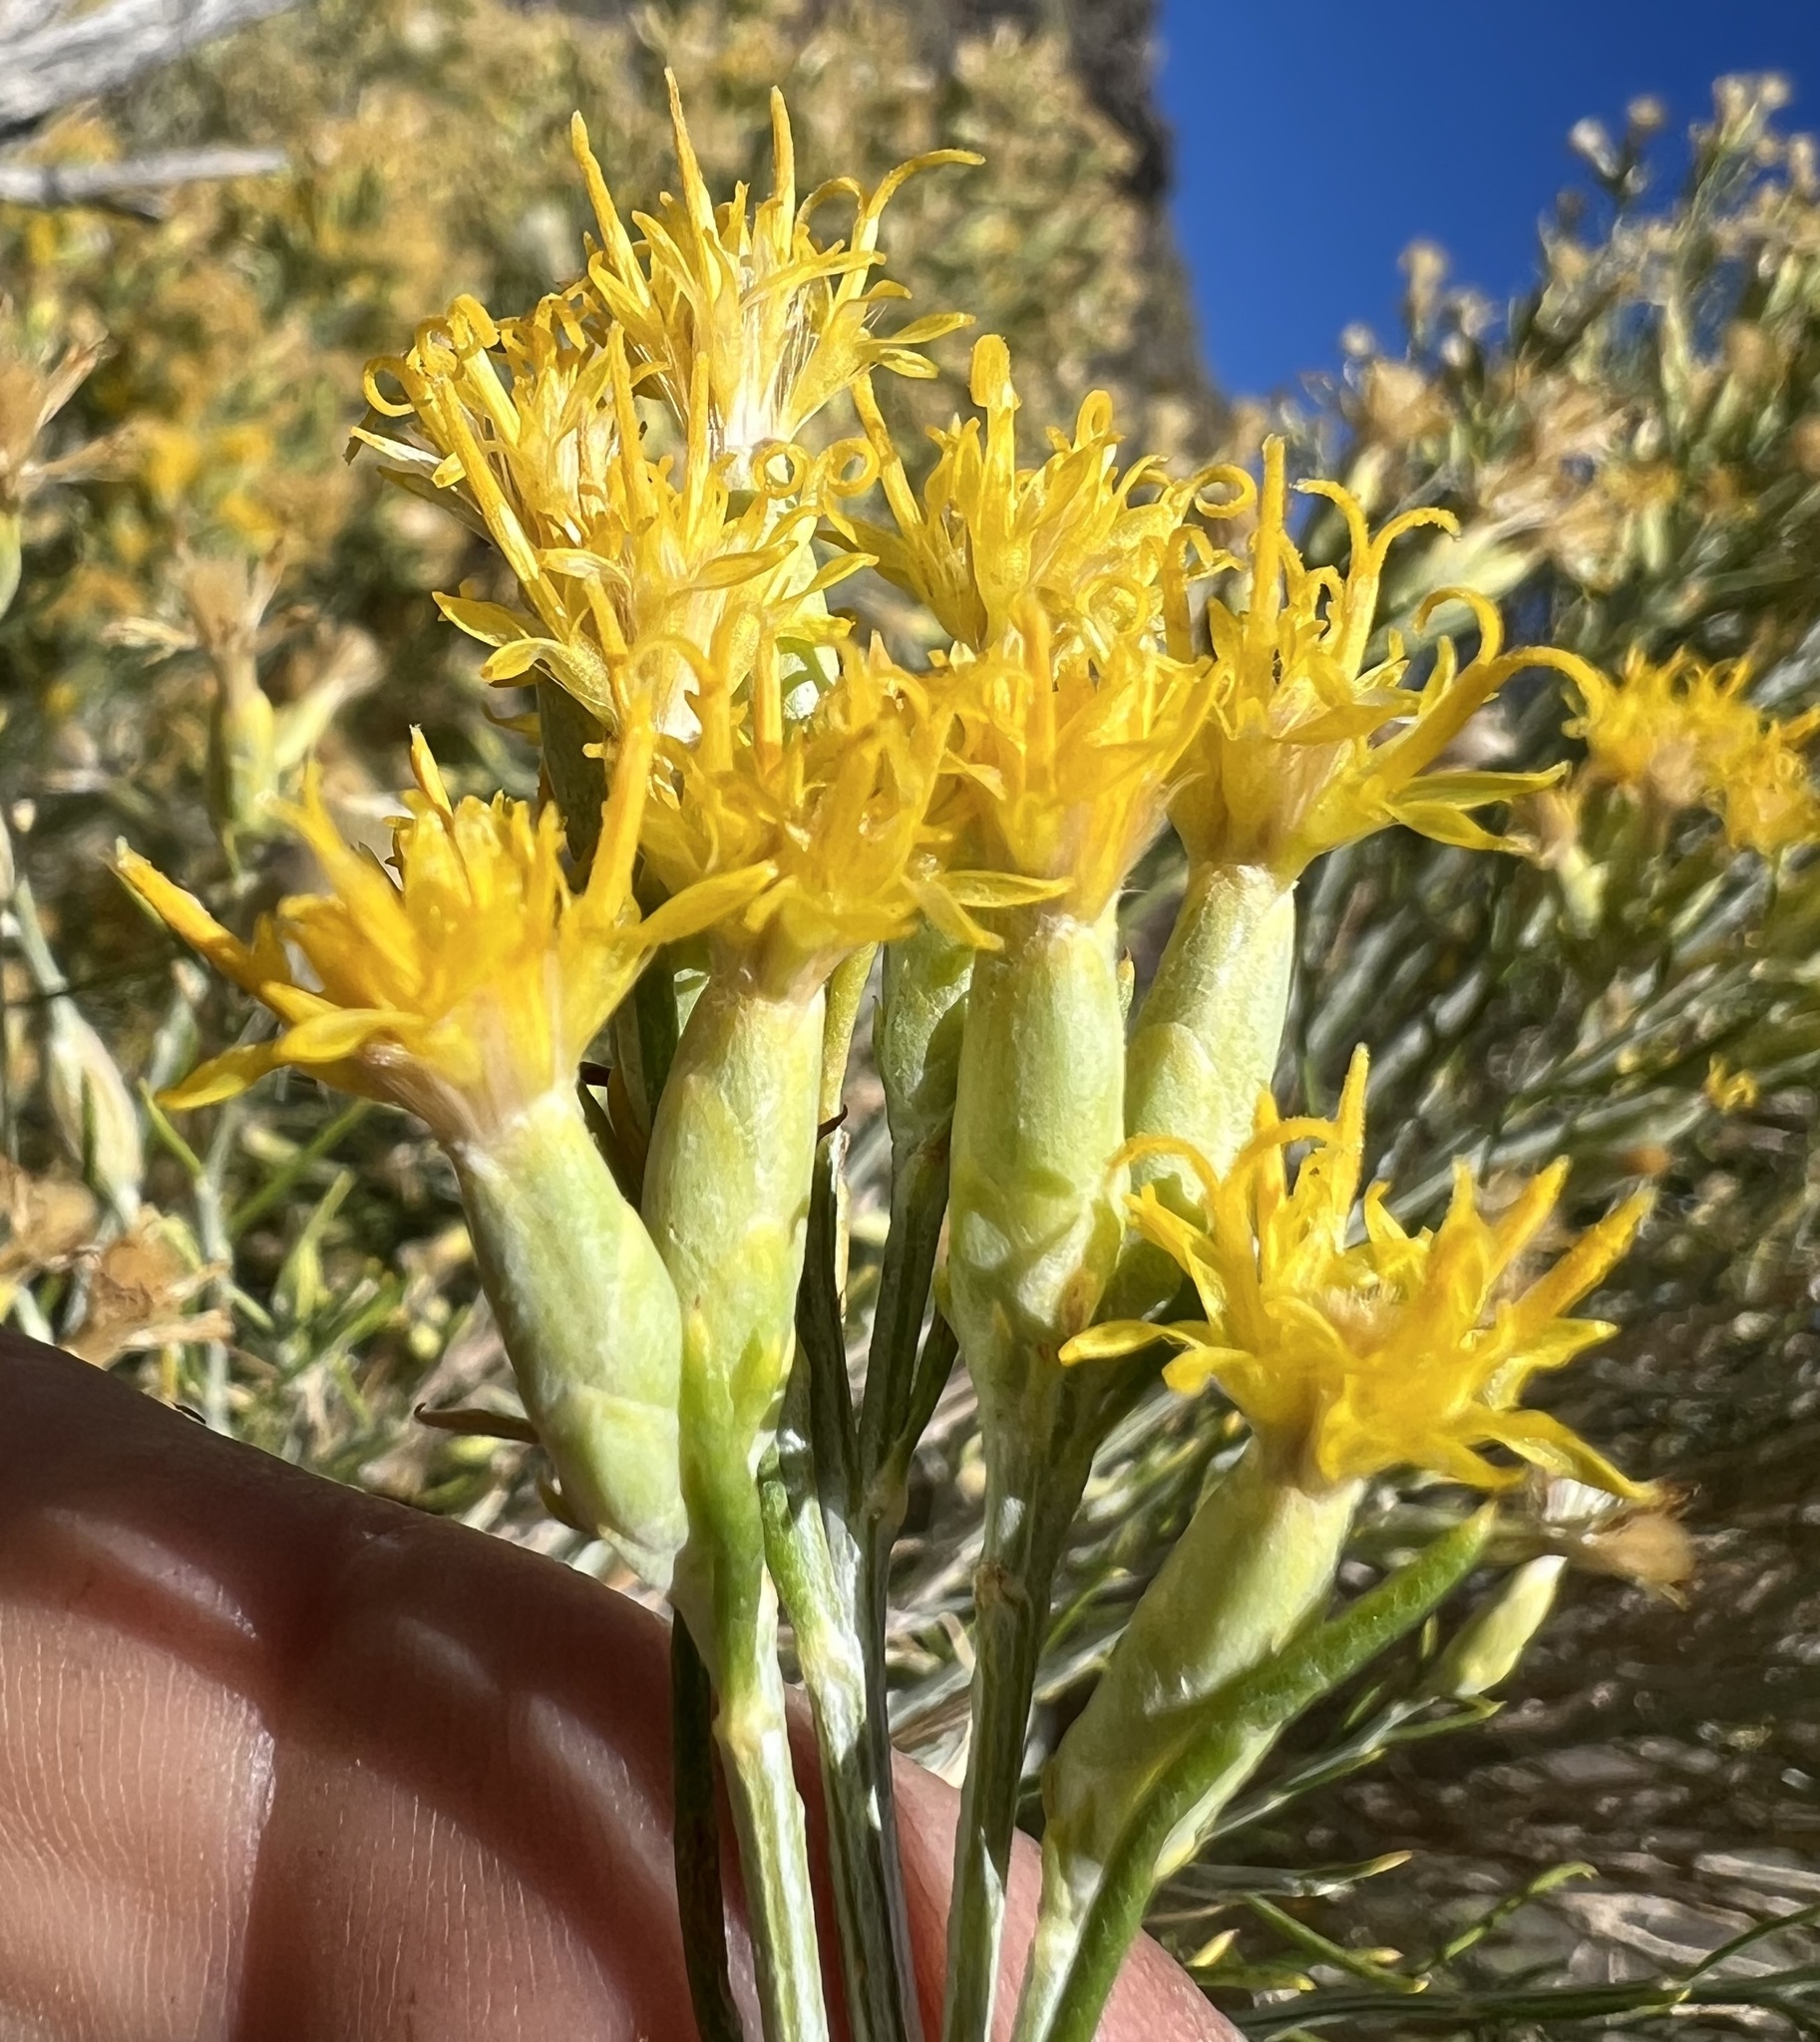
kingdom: Plantae
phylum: Tracheophyta
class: Magnoliopsida
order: Asterales
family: Asteraceae
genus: Lepidospartum
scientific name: Lepidospartum latisquamum
